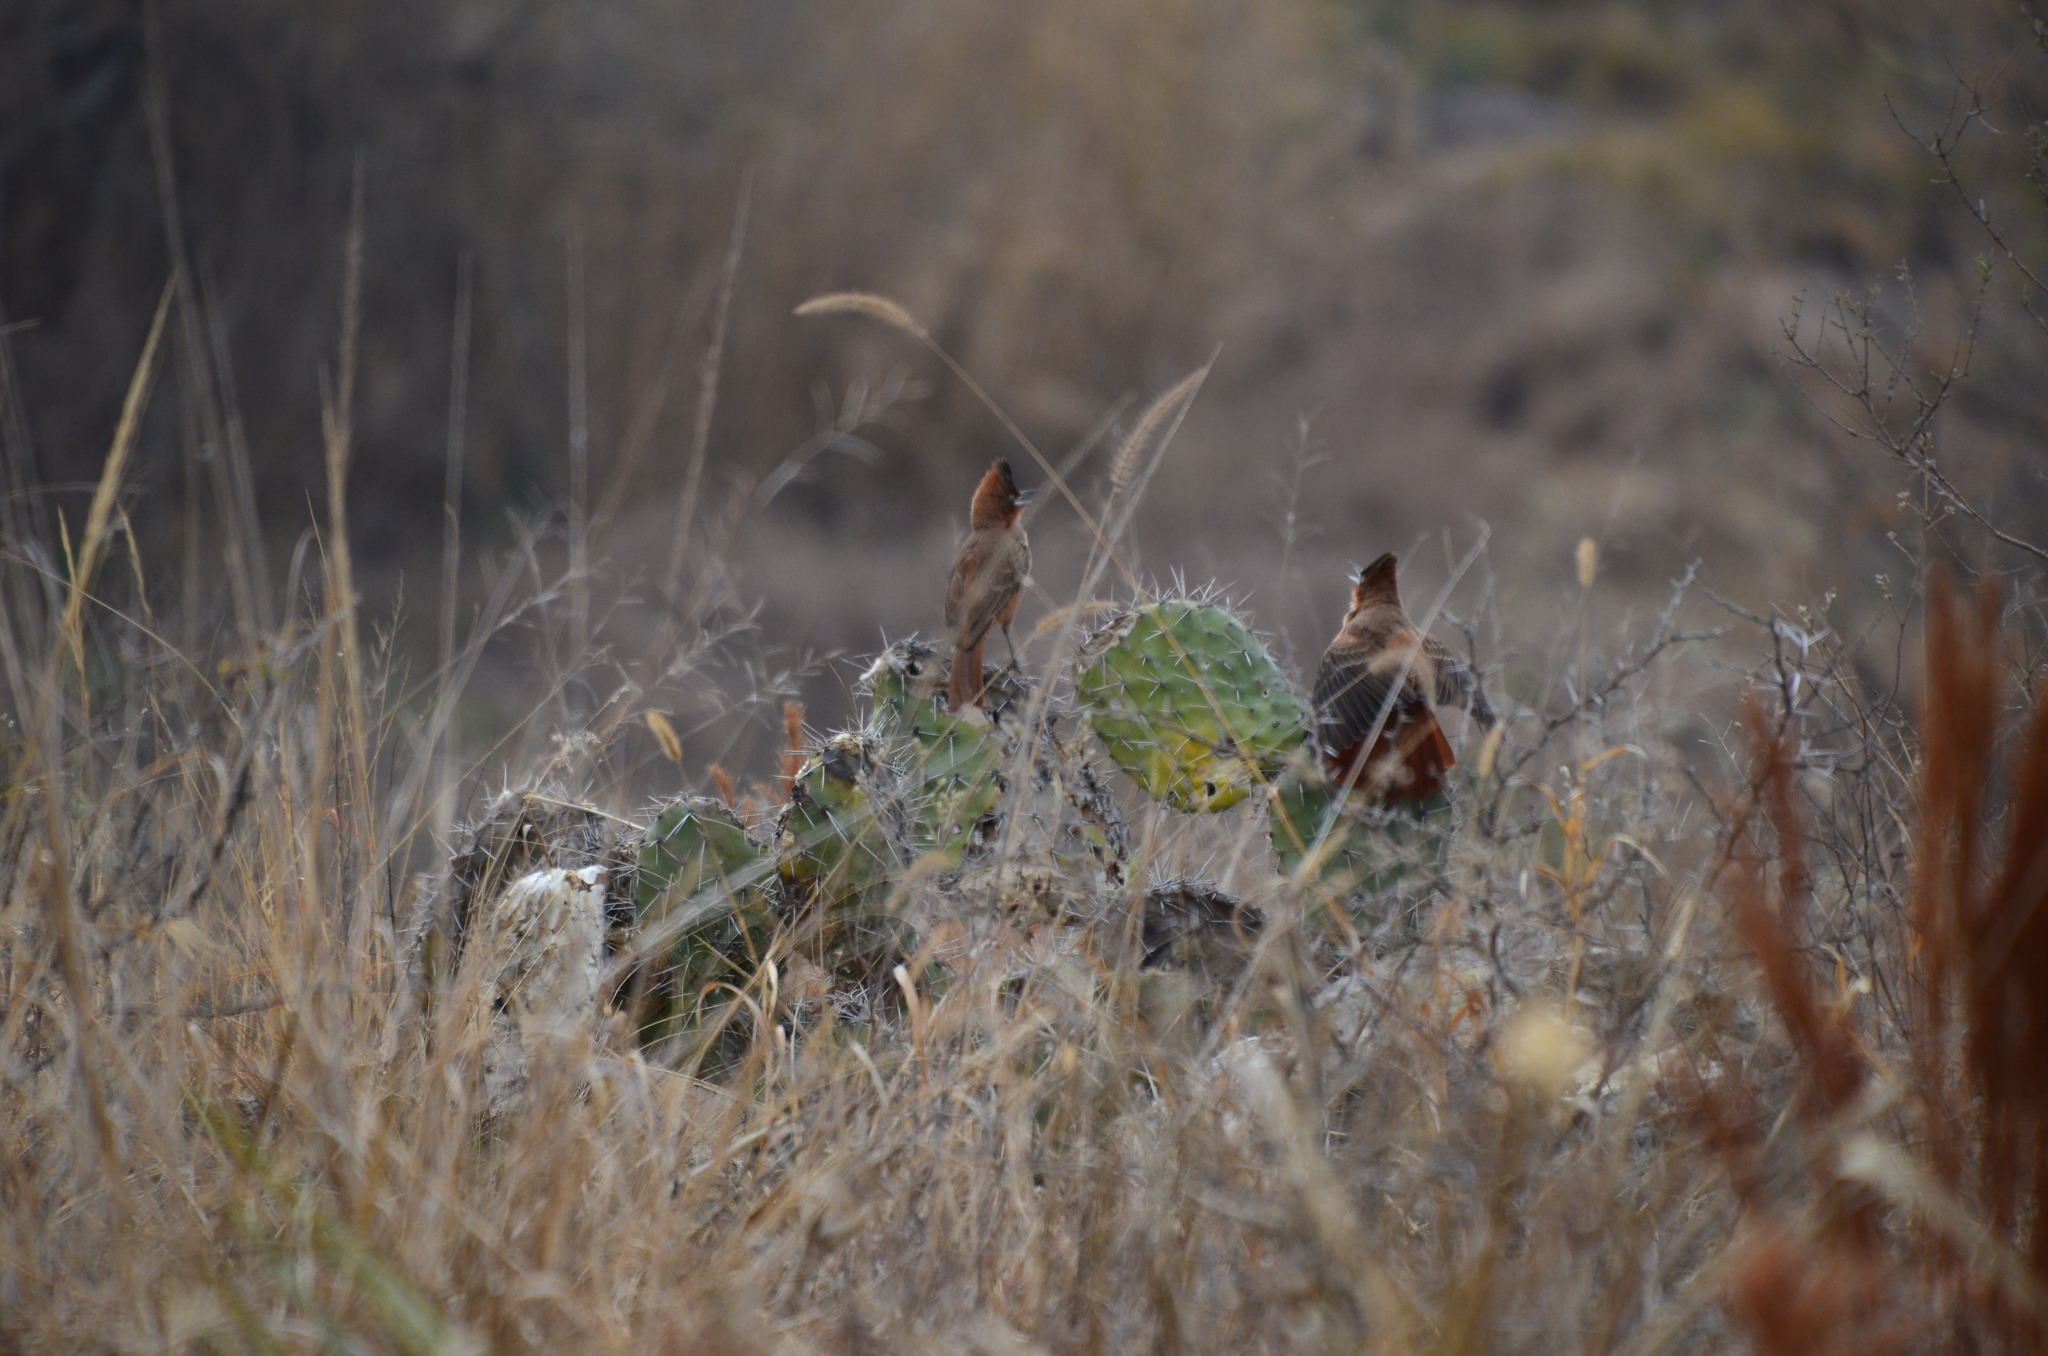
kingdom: Animalia
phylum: Chordata
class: Aves
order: Passeriformes
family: Furnariidae
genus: Pseudoseisura
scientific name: Pseudoseisura lophotes
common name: Brown cacholote
